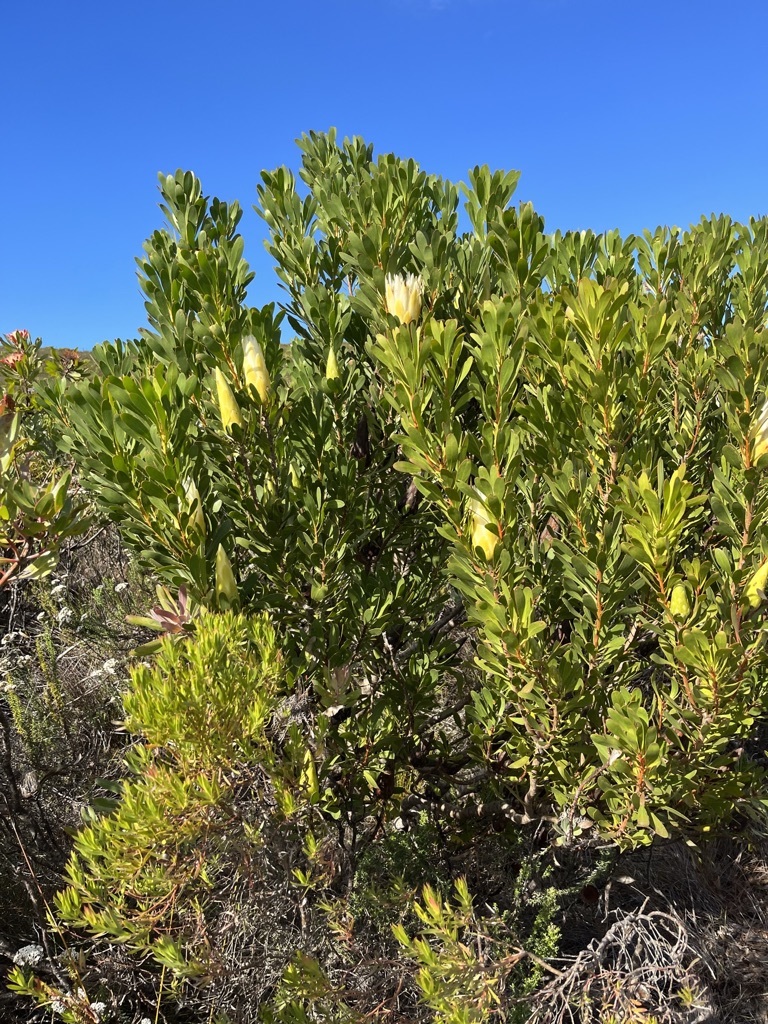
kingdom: Plantae
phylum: Tracheophyta
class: Magnoliopsida
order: Proteales
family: Proteaceae
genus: Protea
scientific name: Protea repens
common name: Sugarbush
